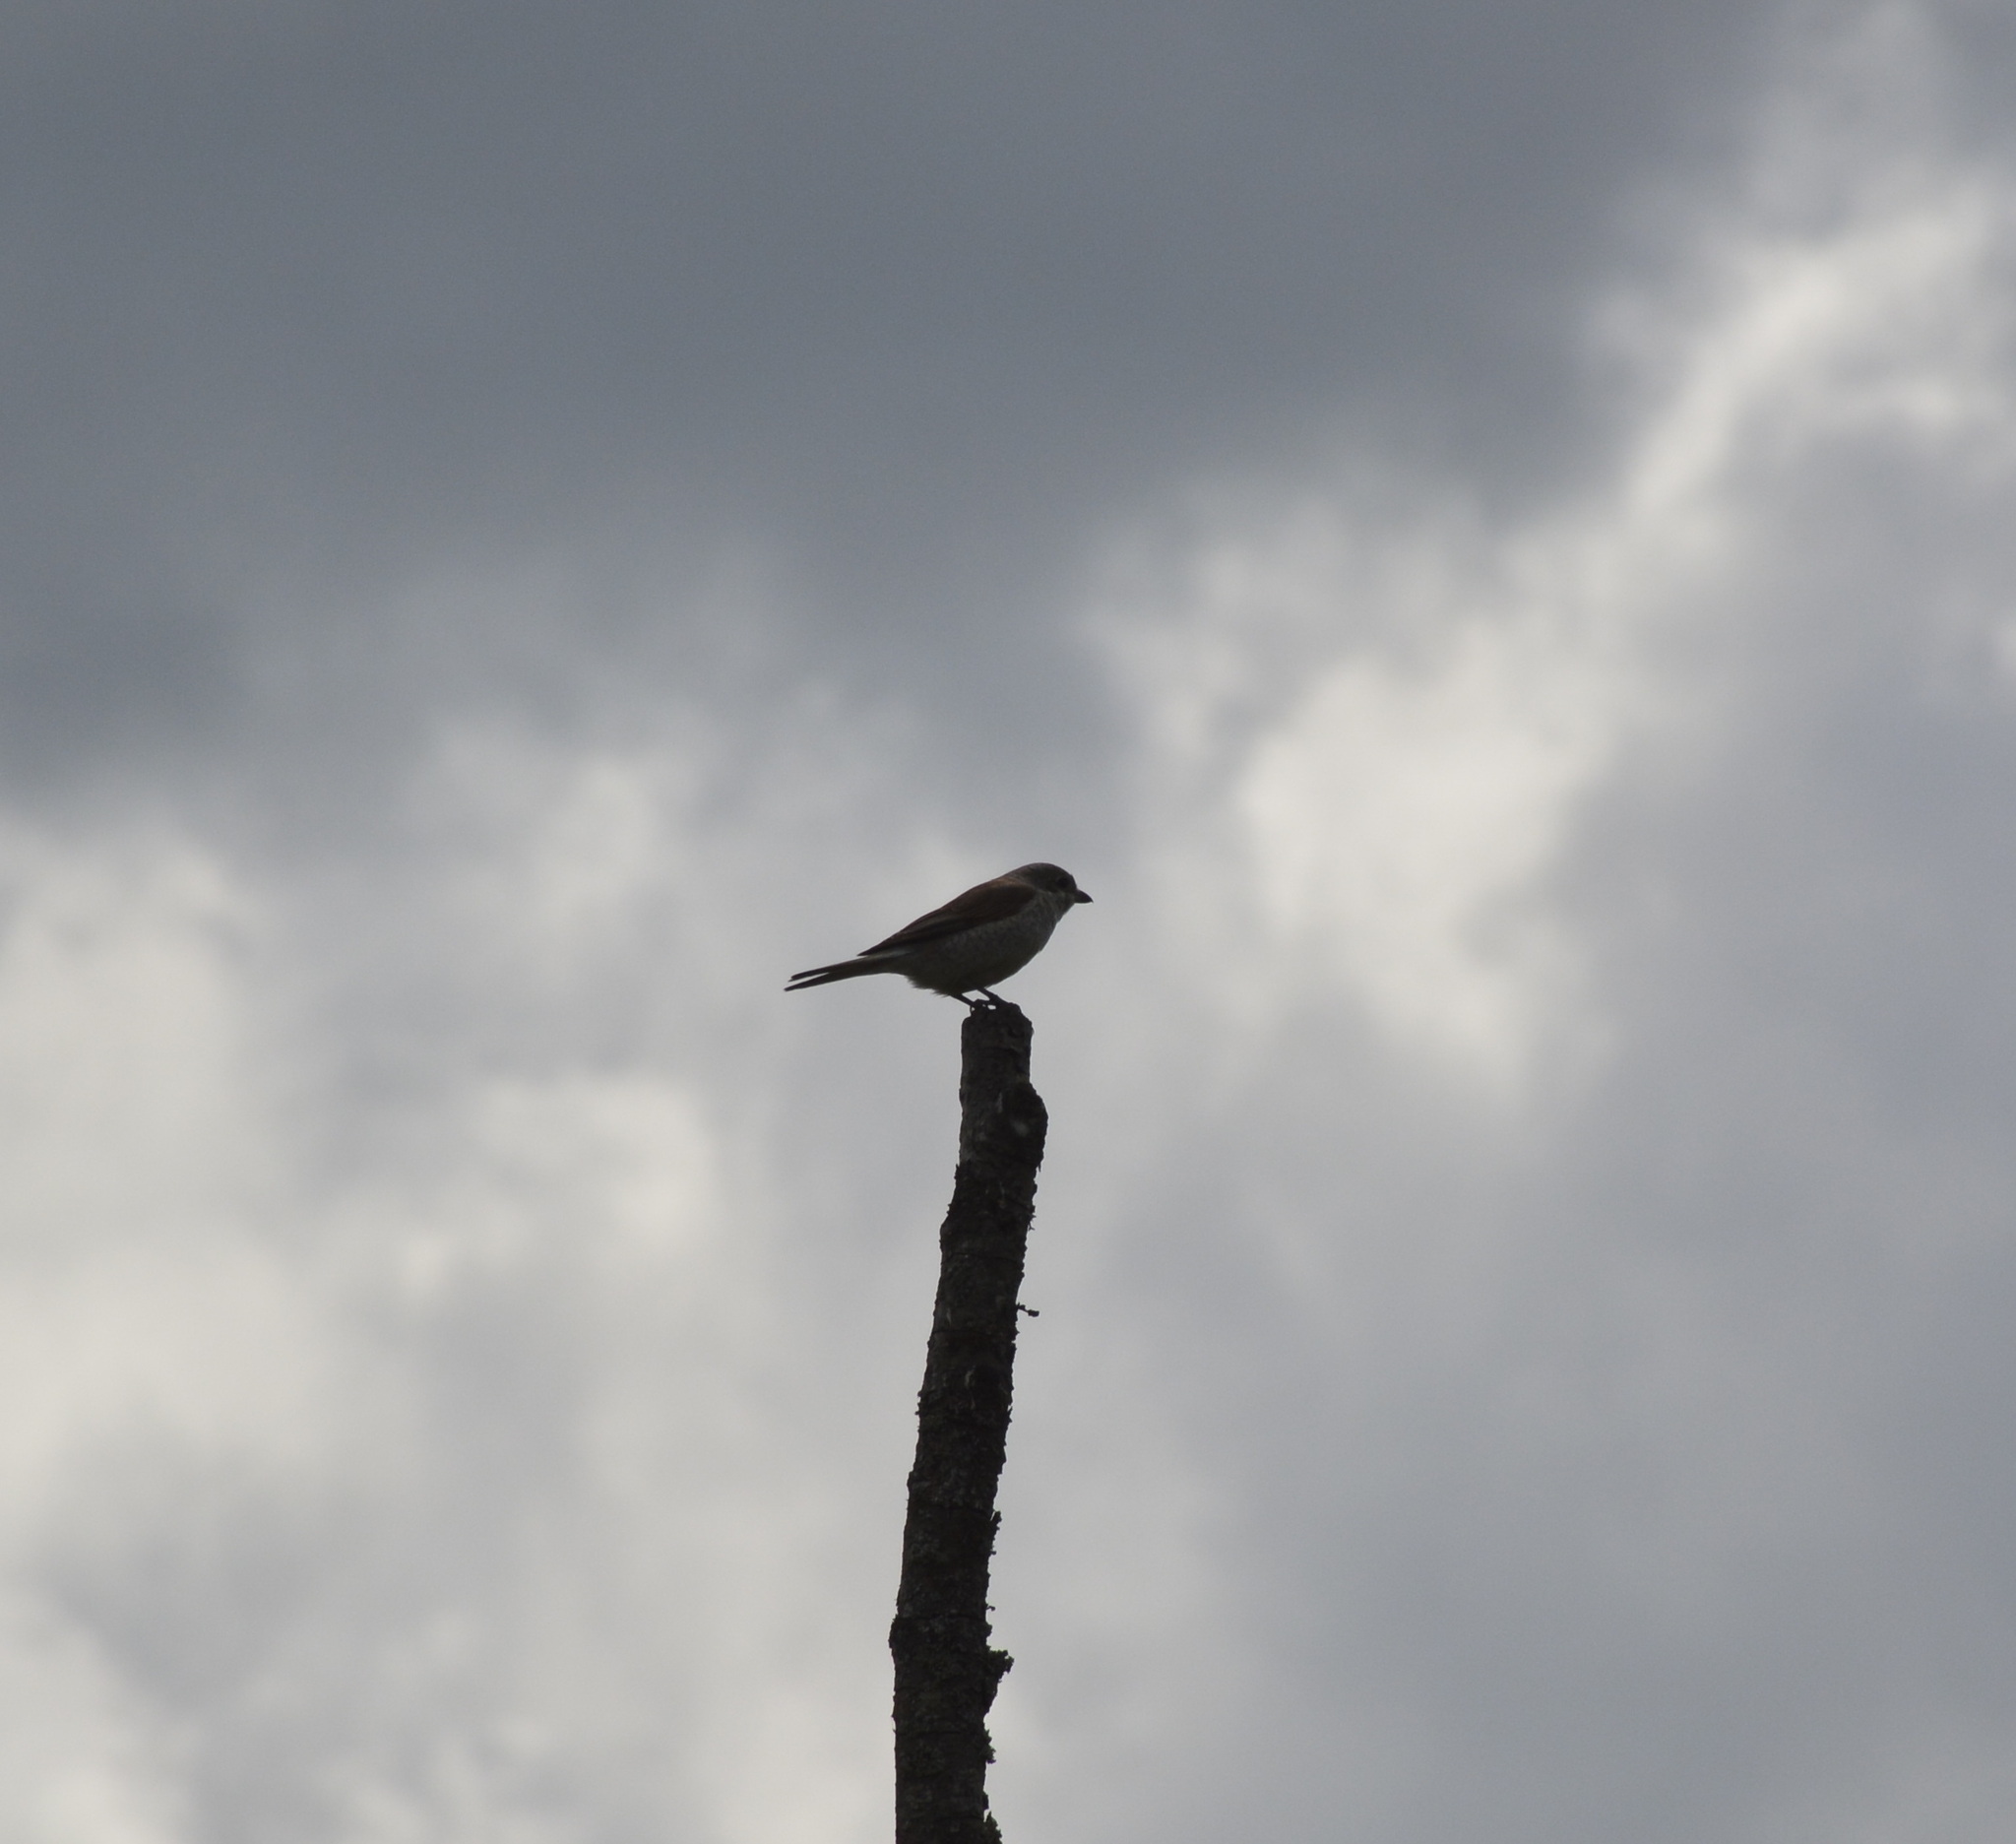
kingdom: Animalia
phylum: Chordata
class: Aves
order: Passeriformes
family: Laniidae
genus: Lanius
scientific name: Lanius collurio
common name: Red-backed shrike
